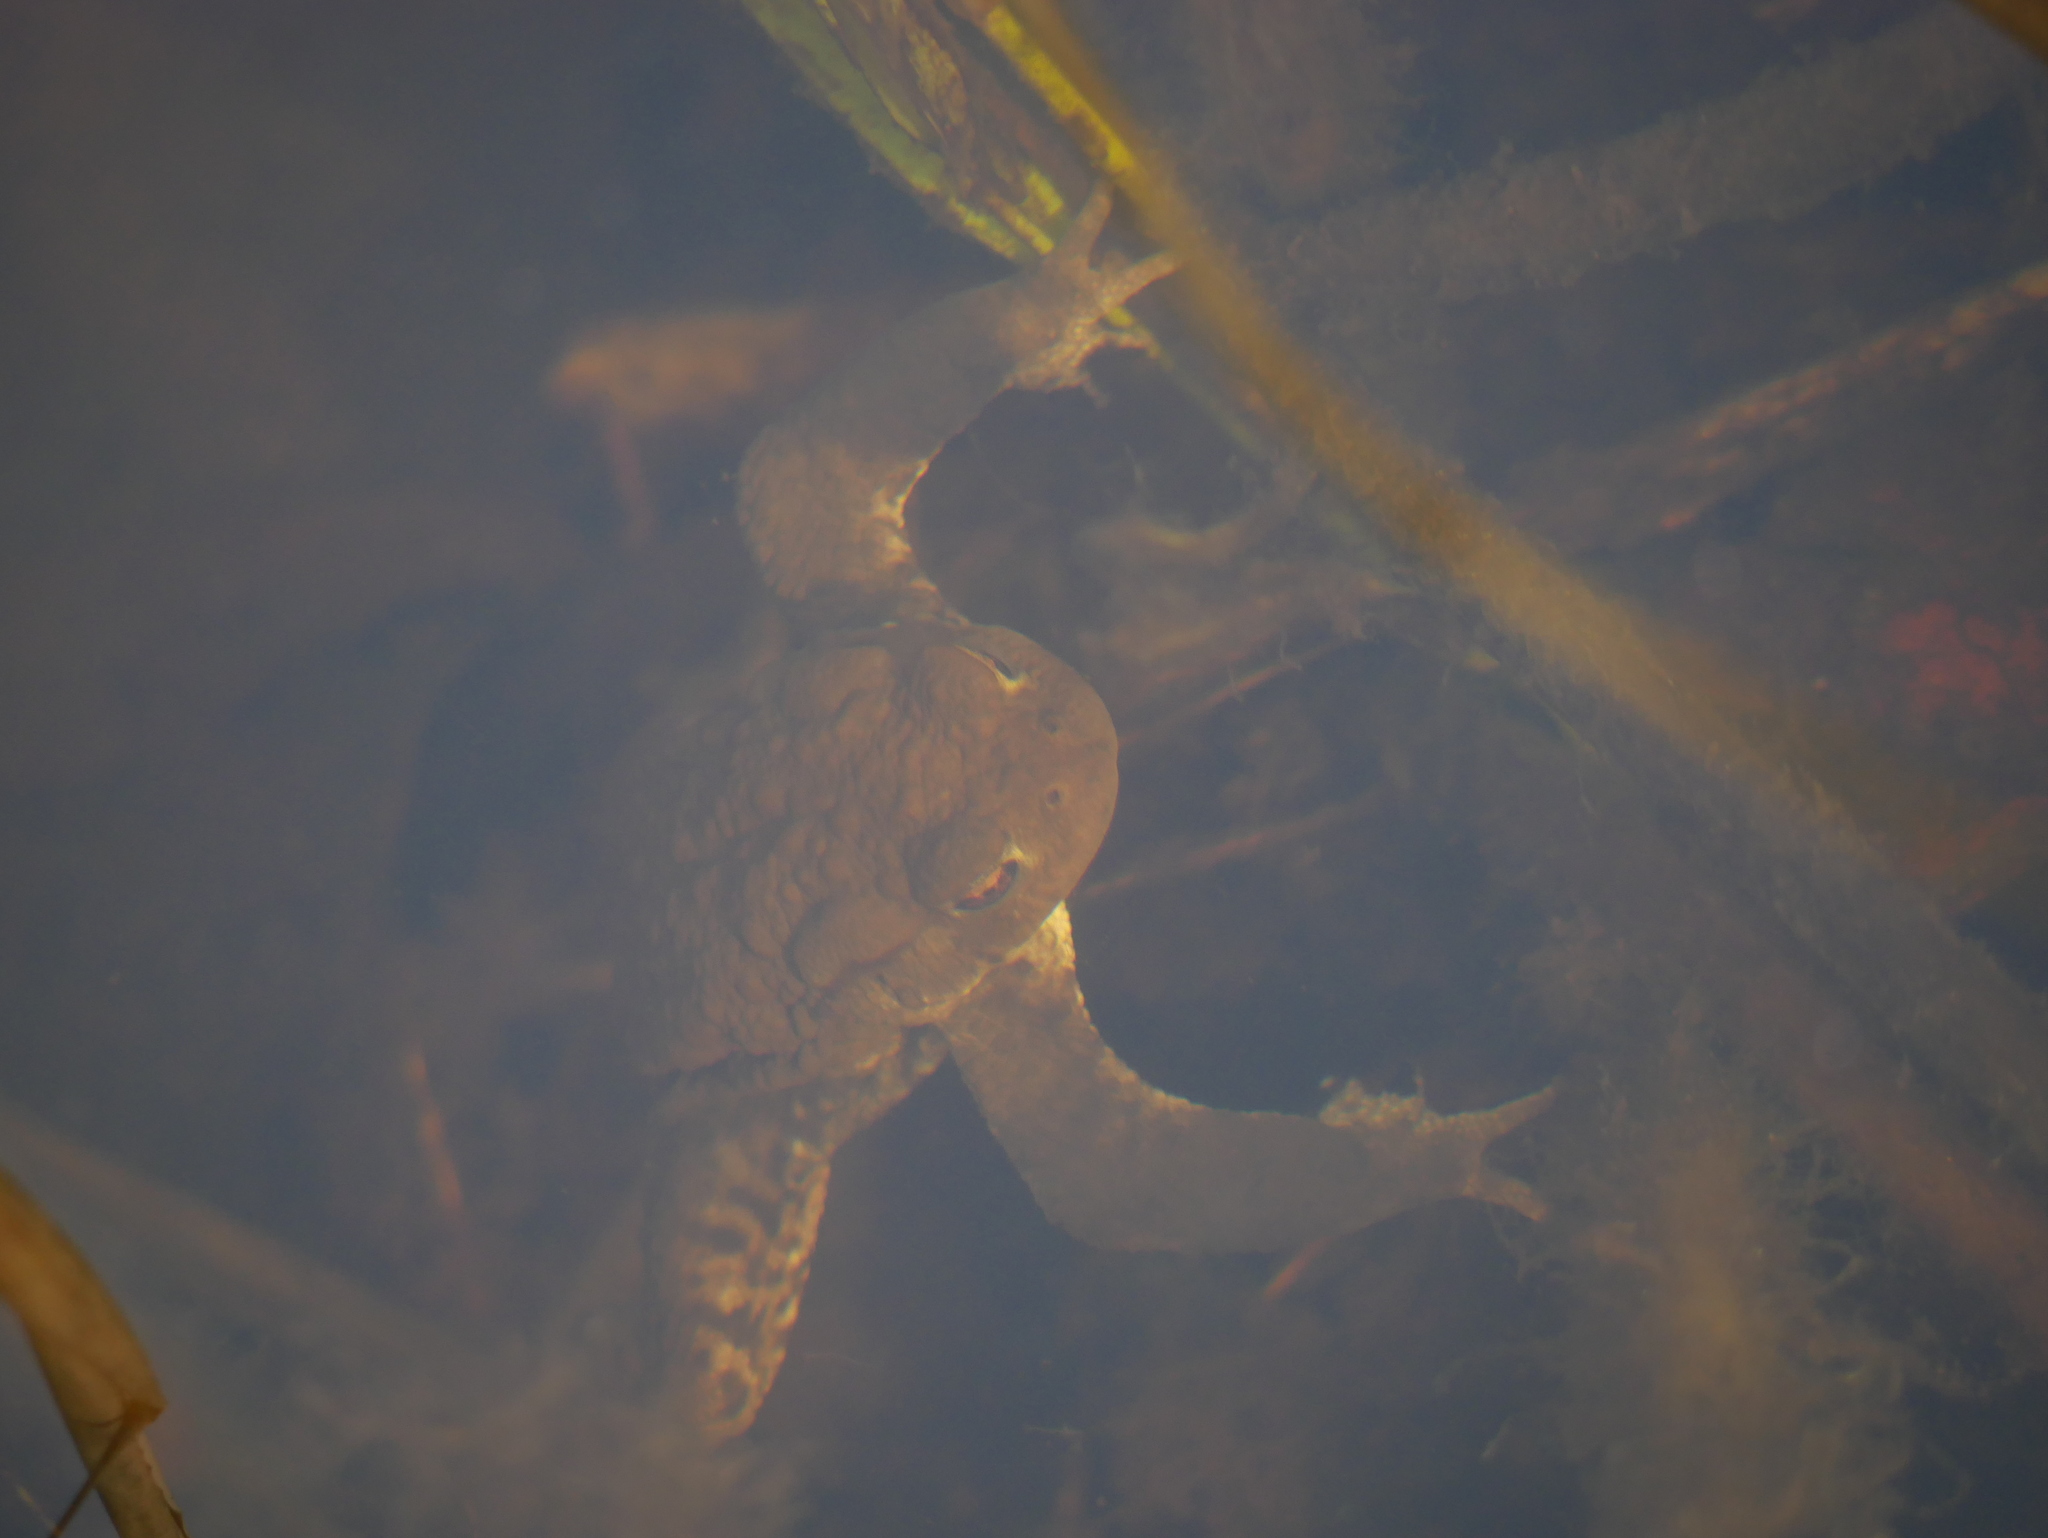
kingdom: Animalia
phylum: Chordata
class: Amphibia
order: Anura
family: Bufonidae
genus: Bufo
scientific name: Bufo bufo
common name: Common toad
